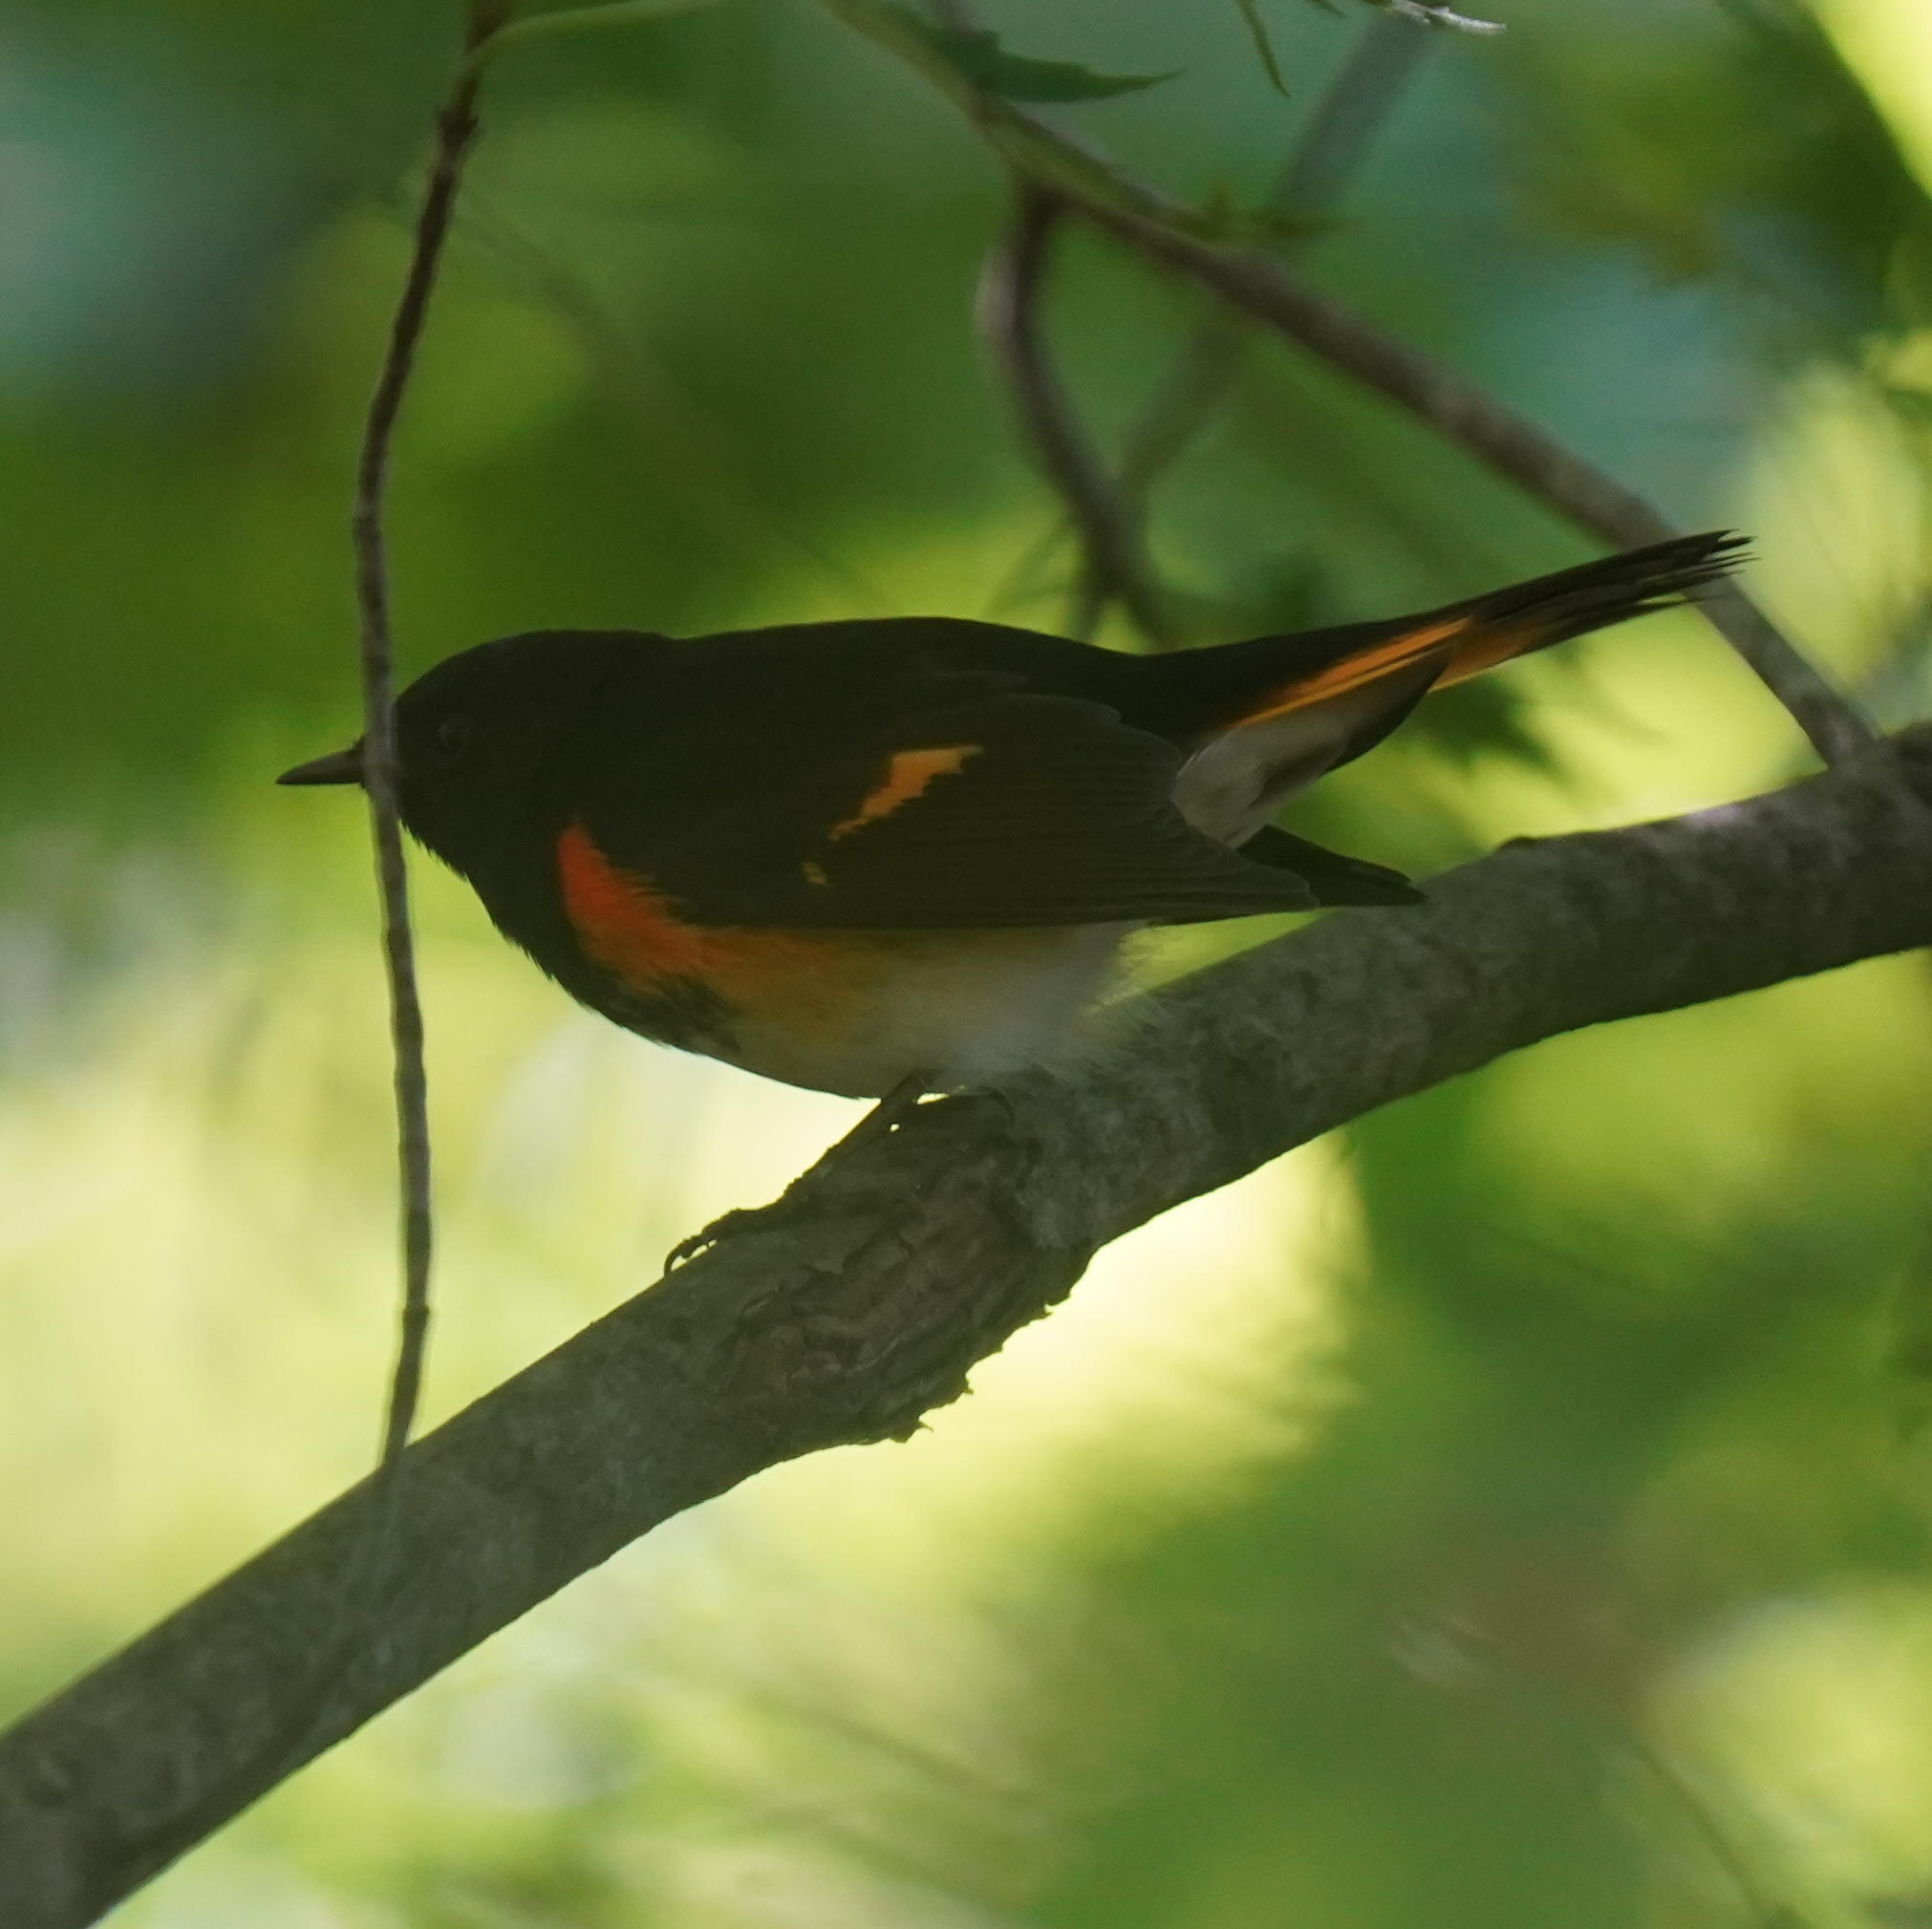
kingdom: Animalia
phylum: Chordata
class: Aves
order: Passeriformes
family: Parulidae
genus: Setophaga
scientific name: Setophaga ruticilla
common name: American redstart
